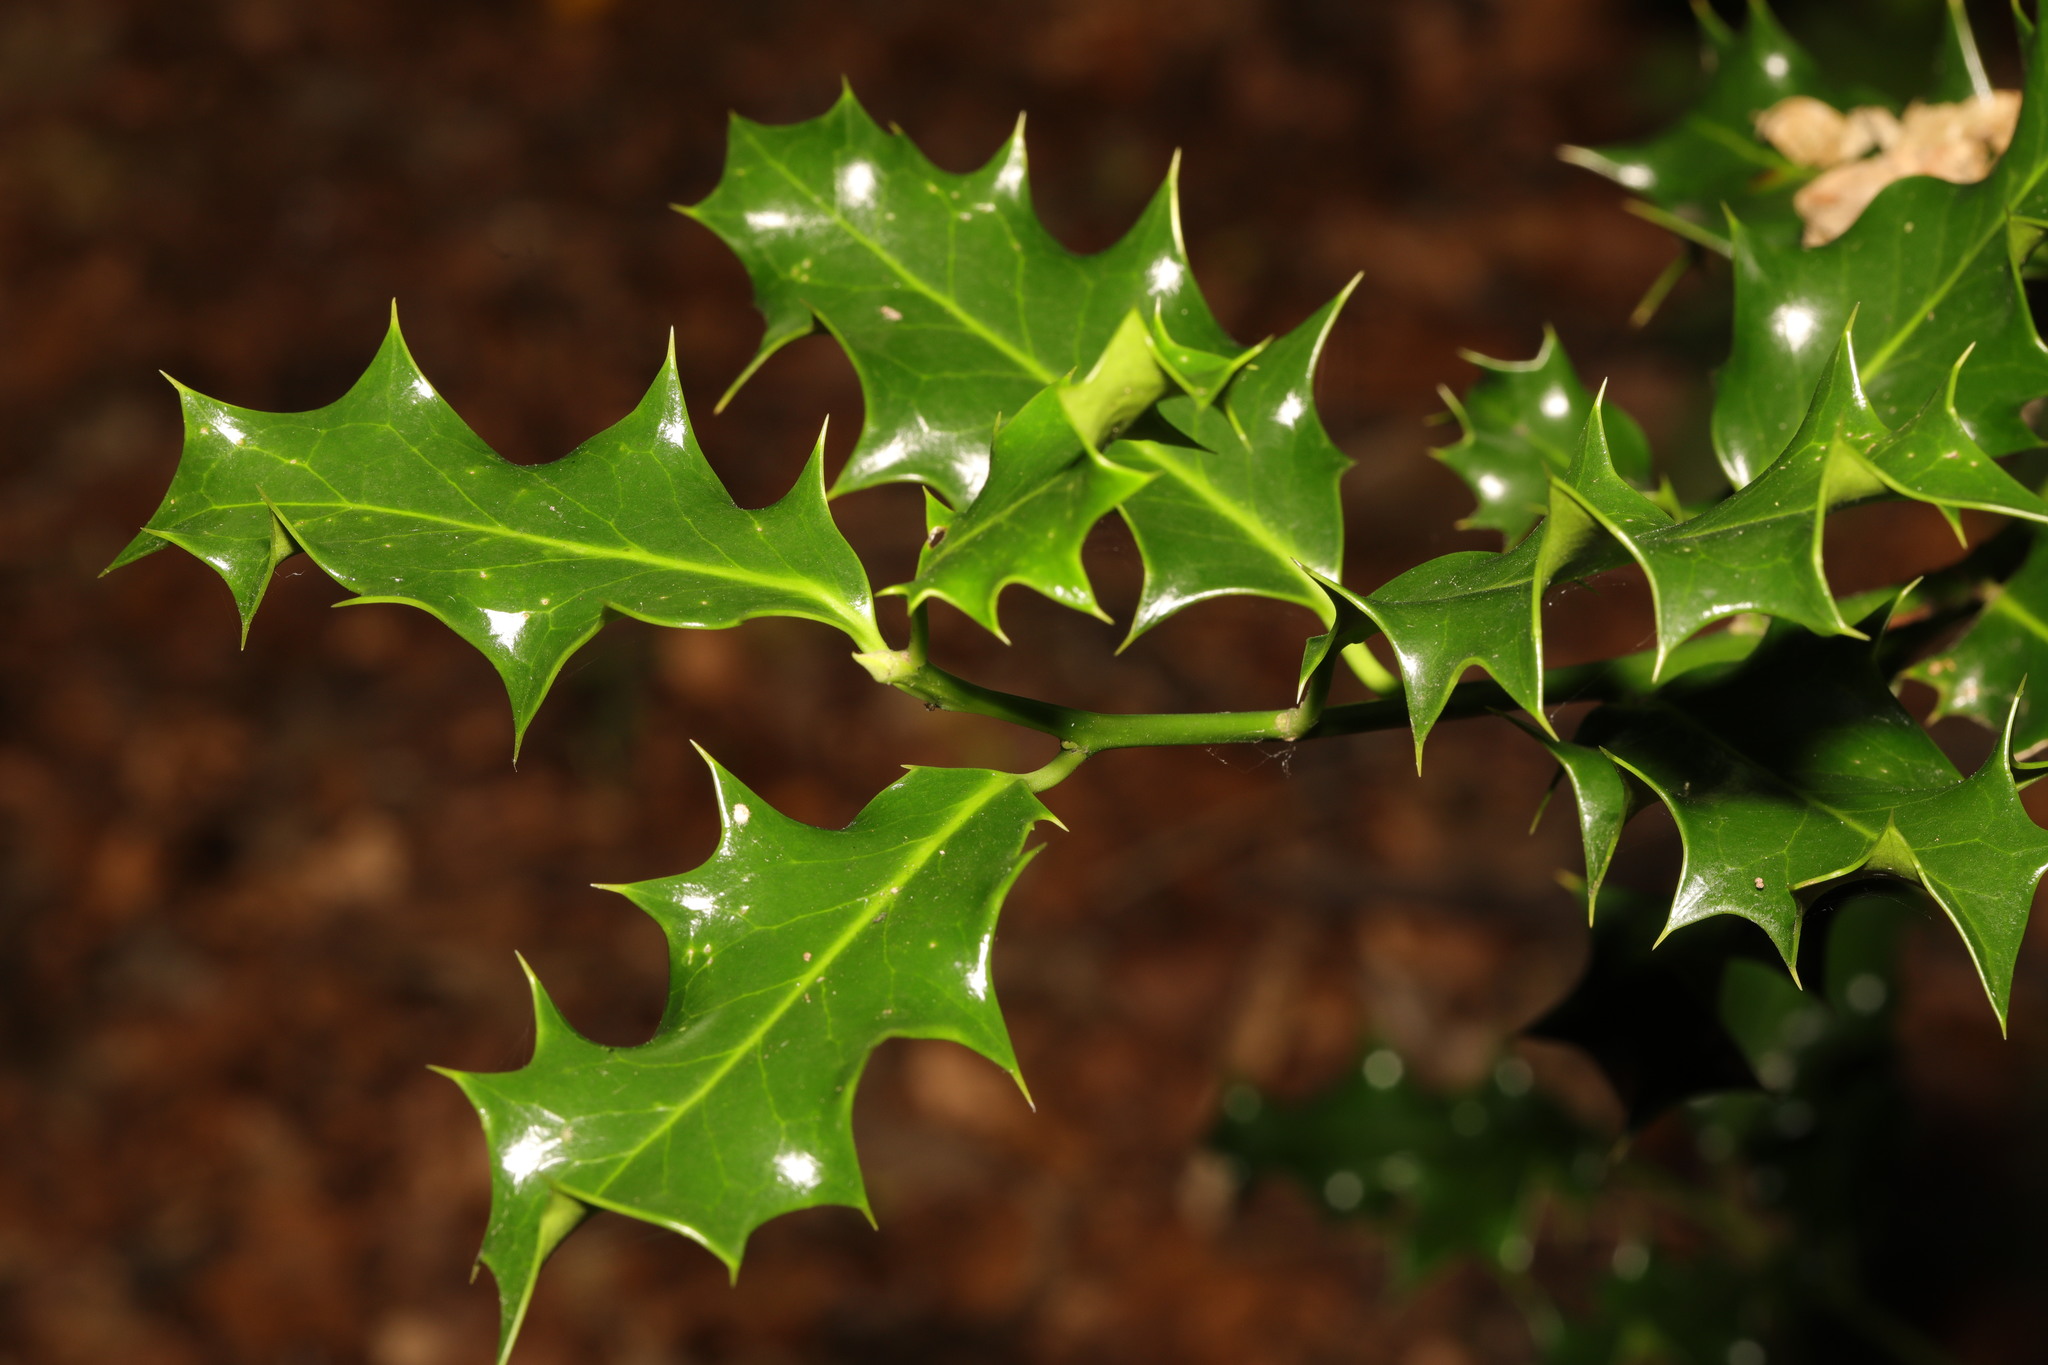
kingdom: Plantae
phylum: Tracheophyta
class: Magnoliopsida
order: Aquifoliales
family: Aquifoliaceae
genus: Ilex
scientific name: Ilex aquifolium
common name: English holly
